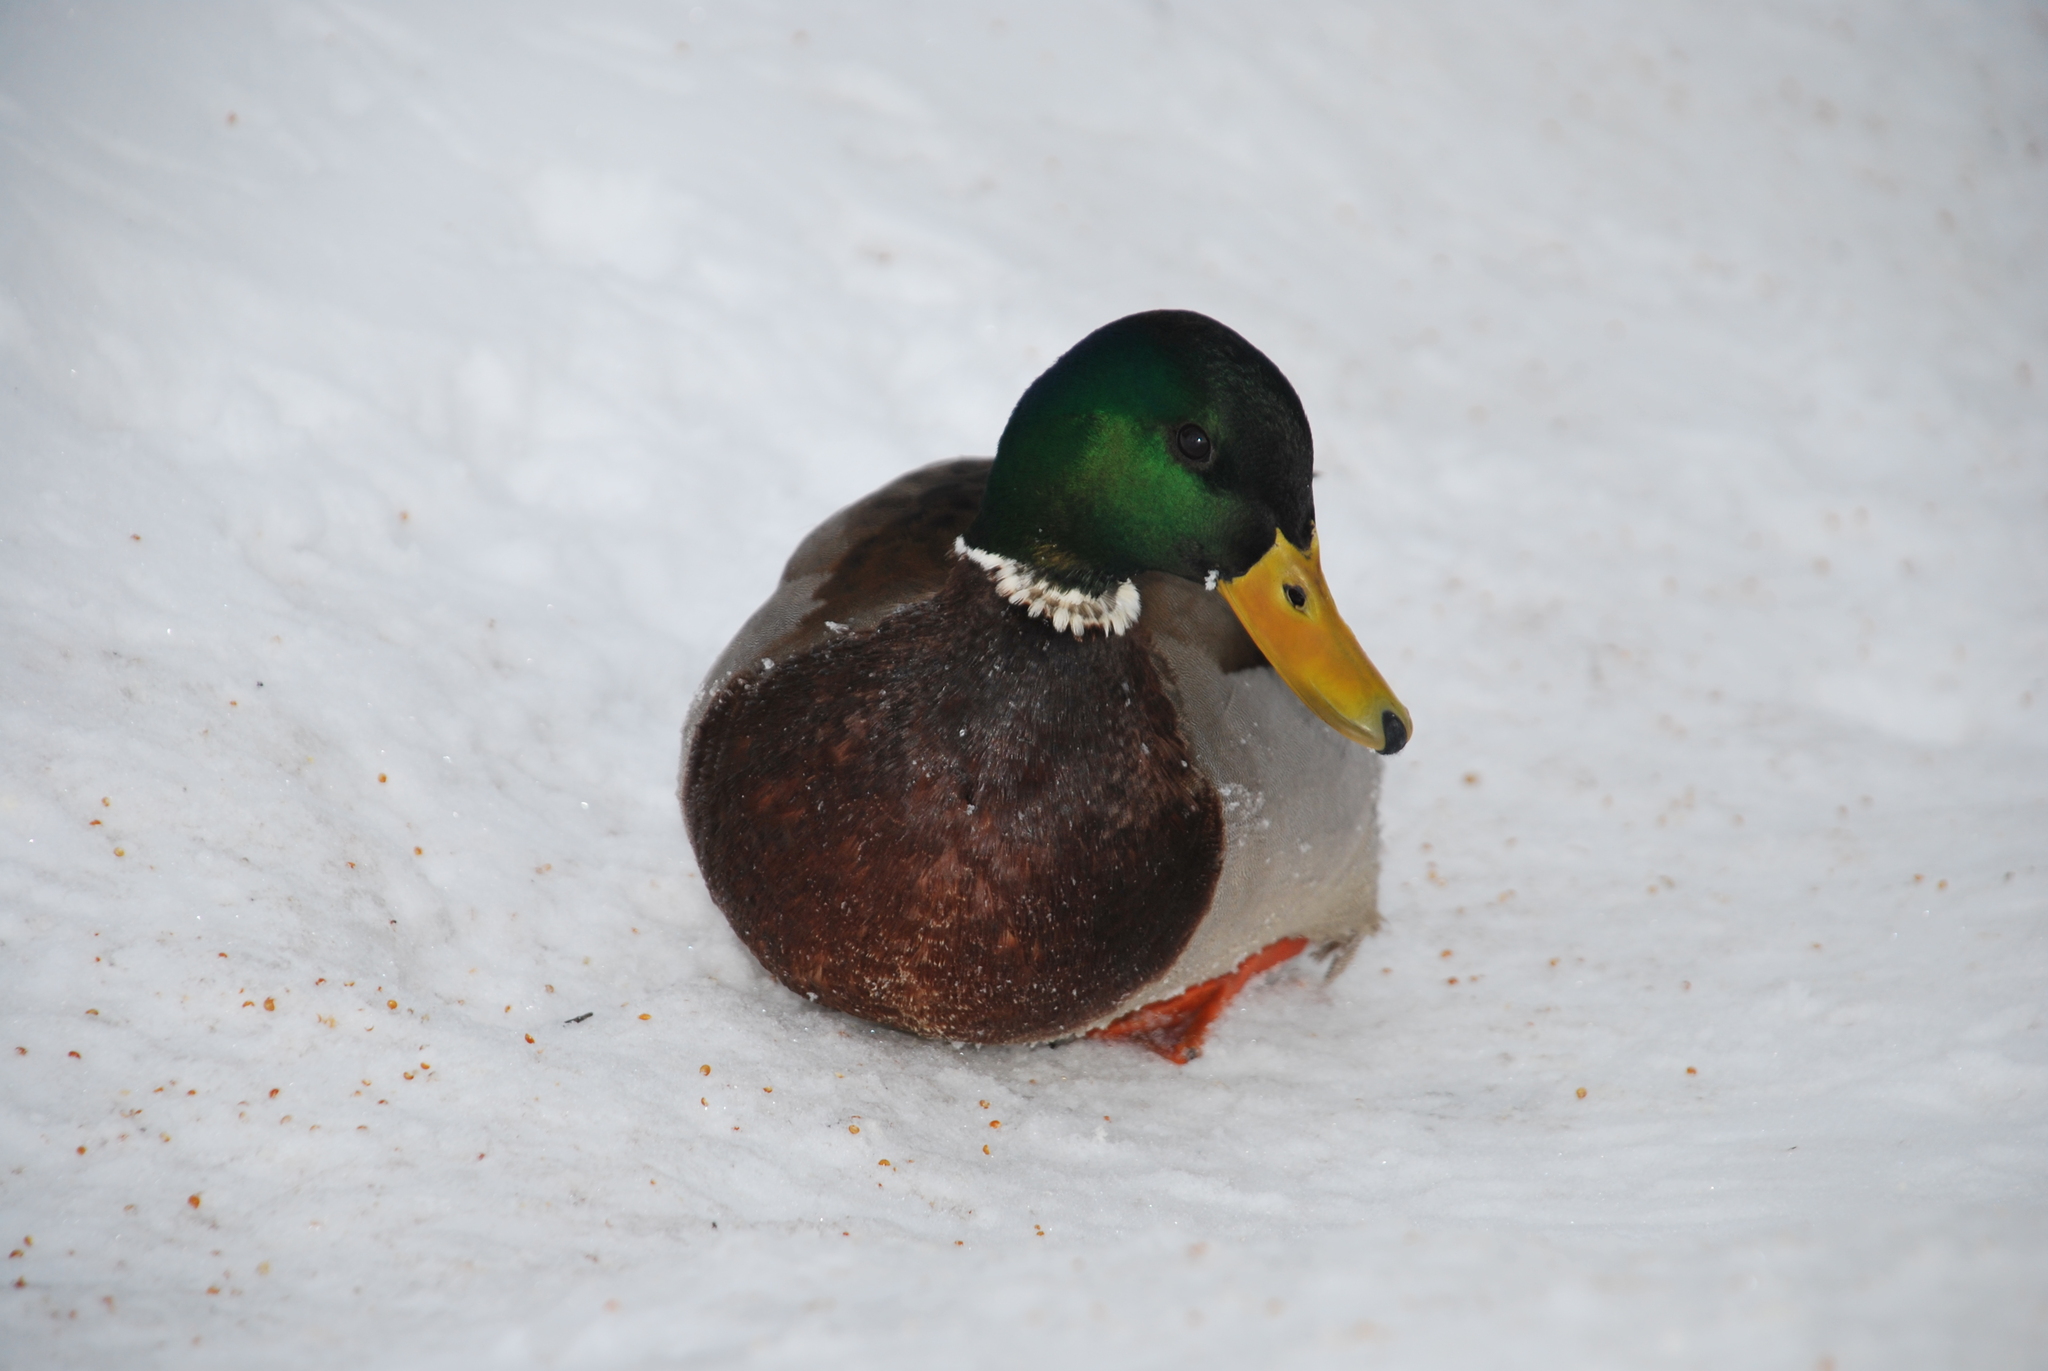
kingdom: Animalia
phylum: Chordata
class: Aves
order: Anseriformes
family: Anatidae
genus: Anas
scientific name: Anas platyrhynchos
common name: Mallard
